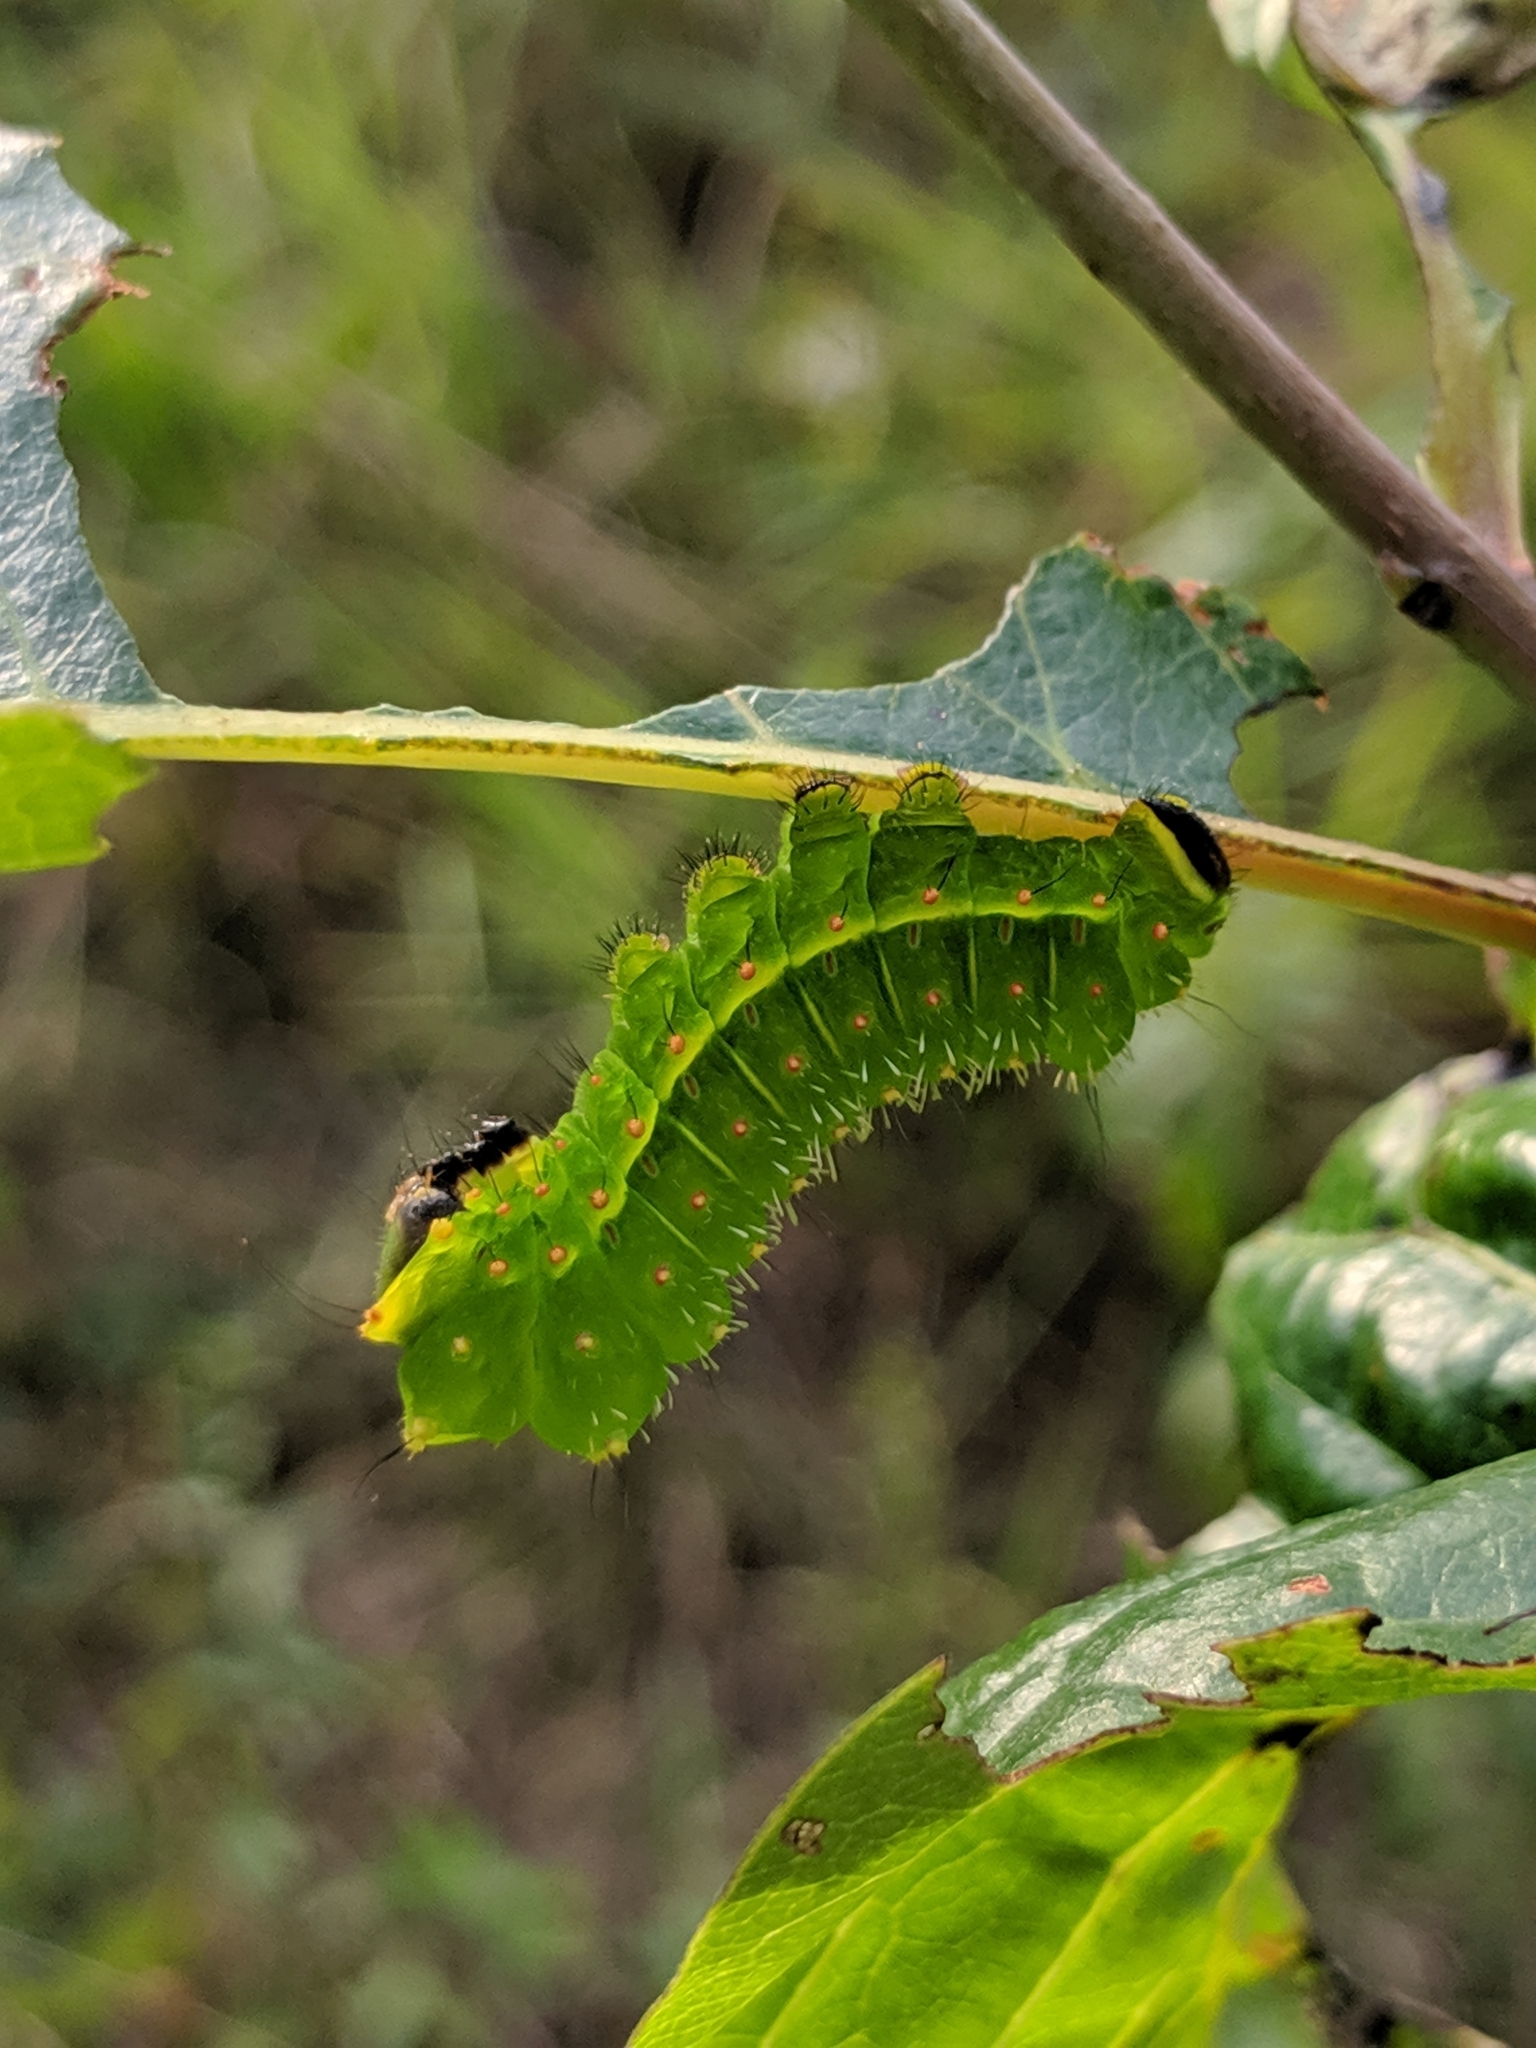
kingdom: Animalia
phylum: Arthropoda
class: Insecta
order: Lepidoptera
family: Saturniidae
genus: Actias
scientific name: Actias luna
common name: Luna moth
